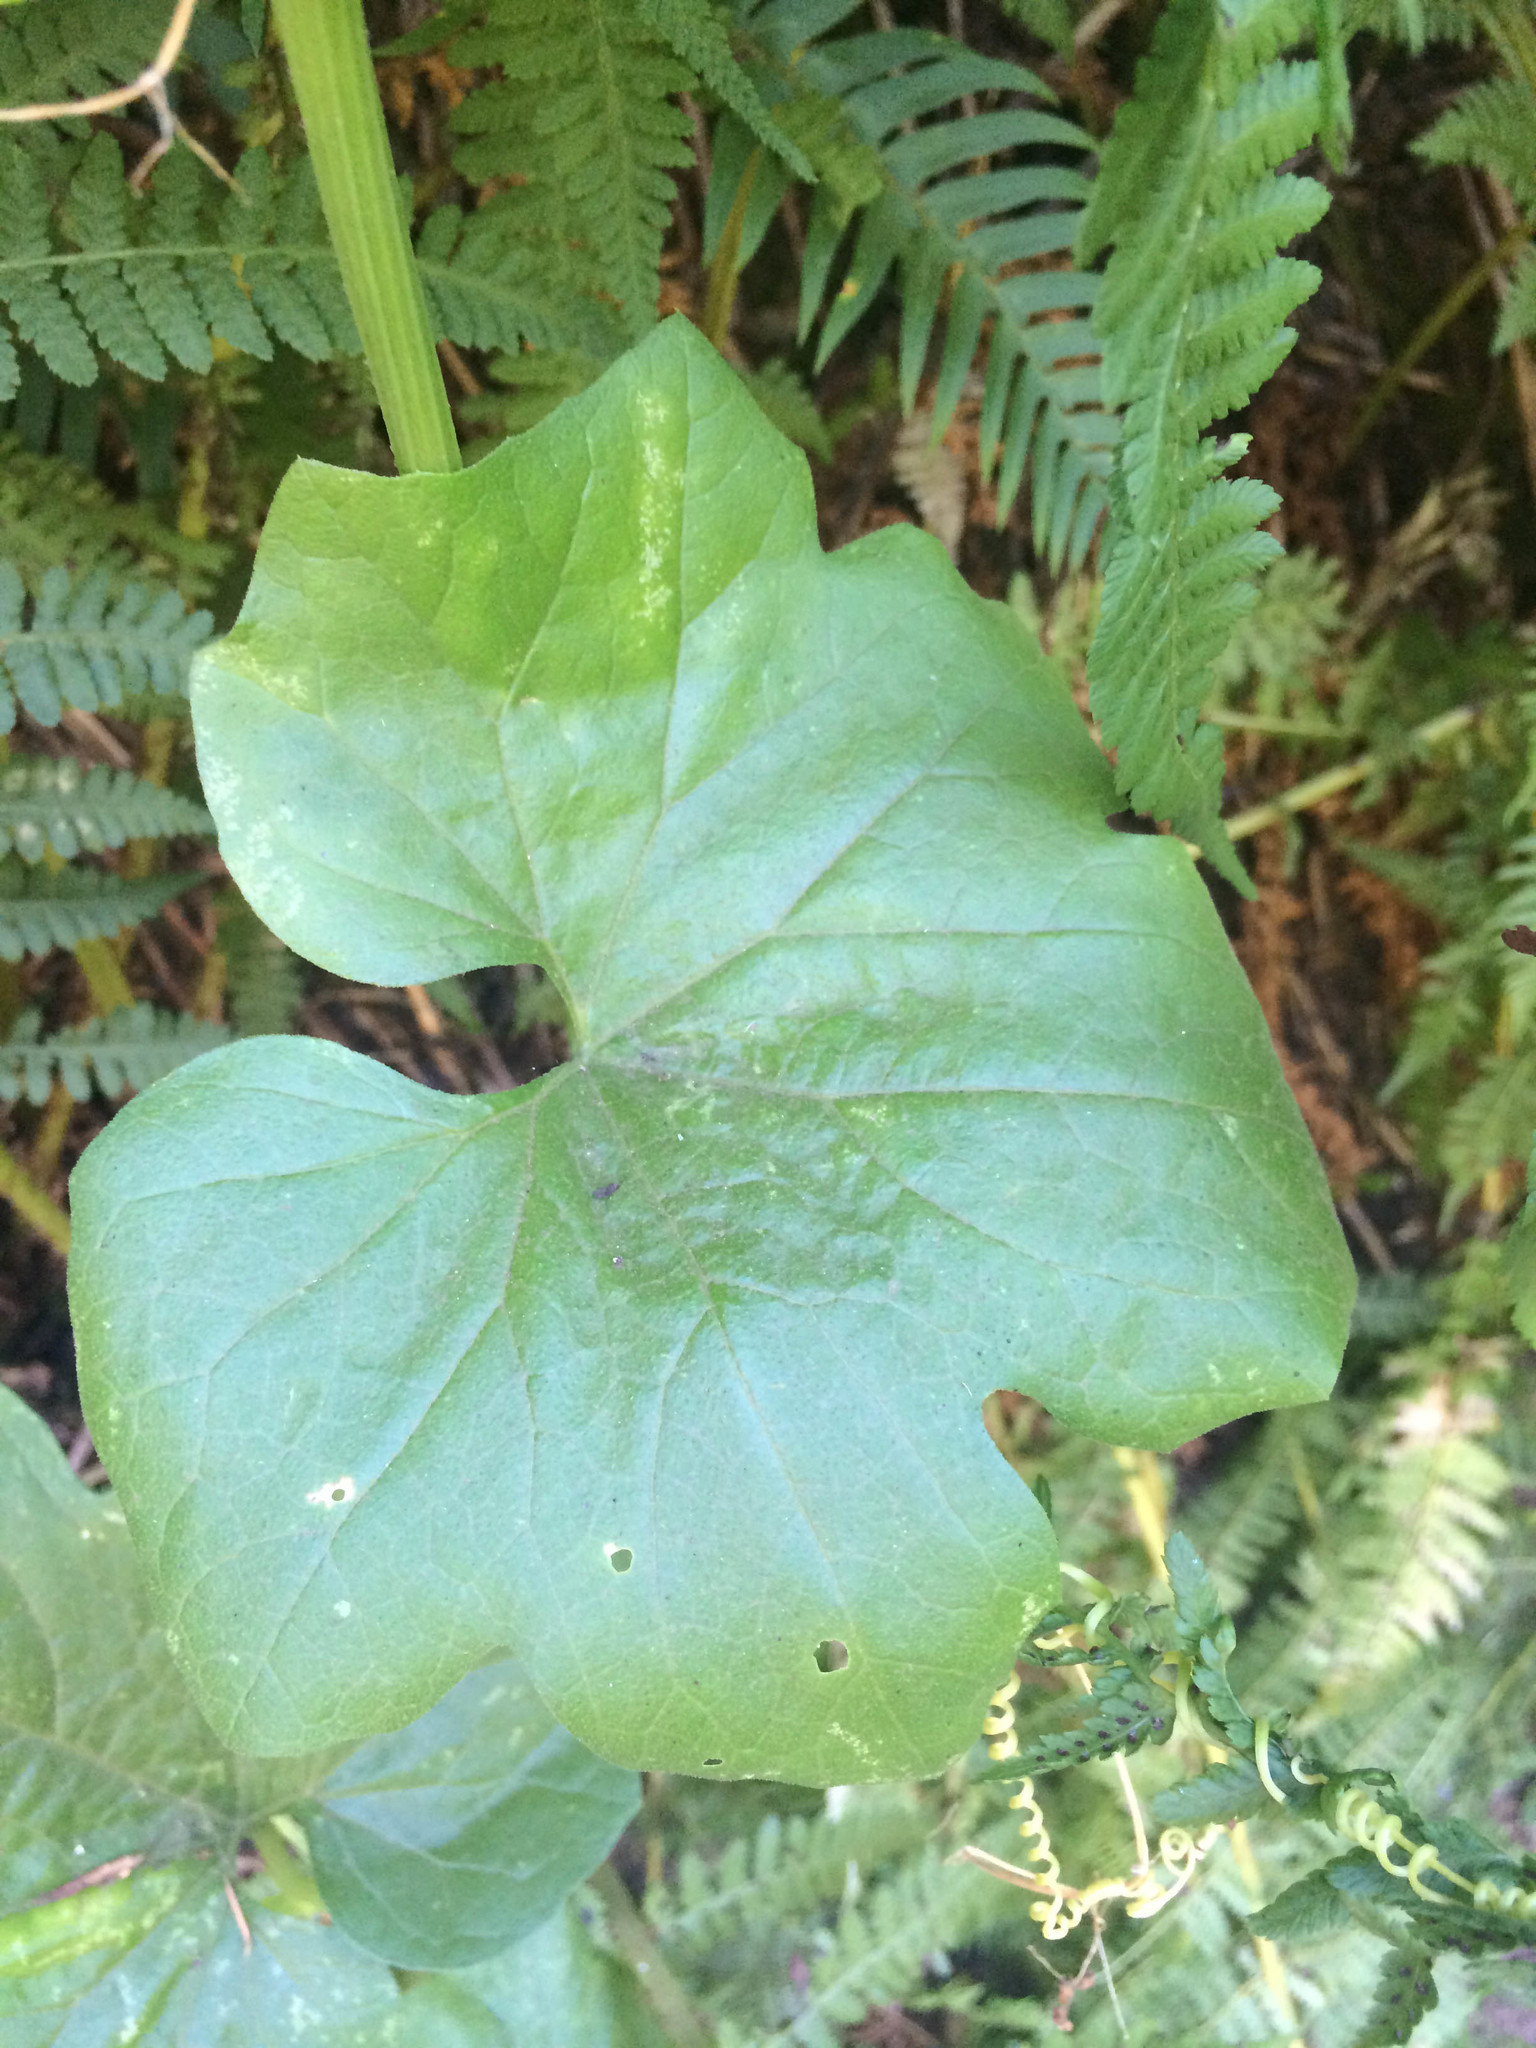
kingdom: Plantae
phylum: Tracheophyta
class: Magnoliopsida
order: Cucurbitales
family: Cucurbitaceae
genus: Marah
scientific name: Marah oregana
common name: Coastal manroot
